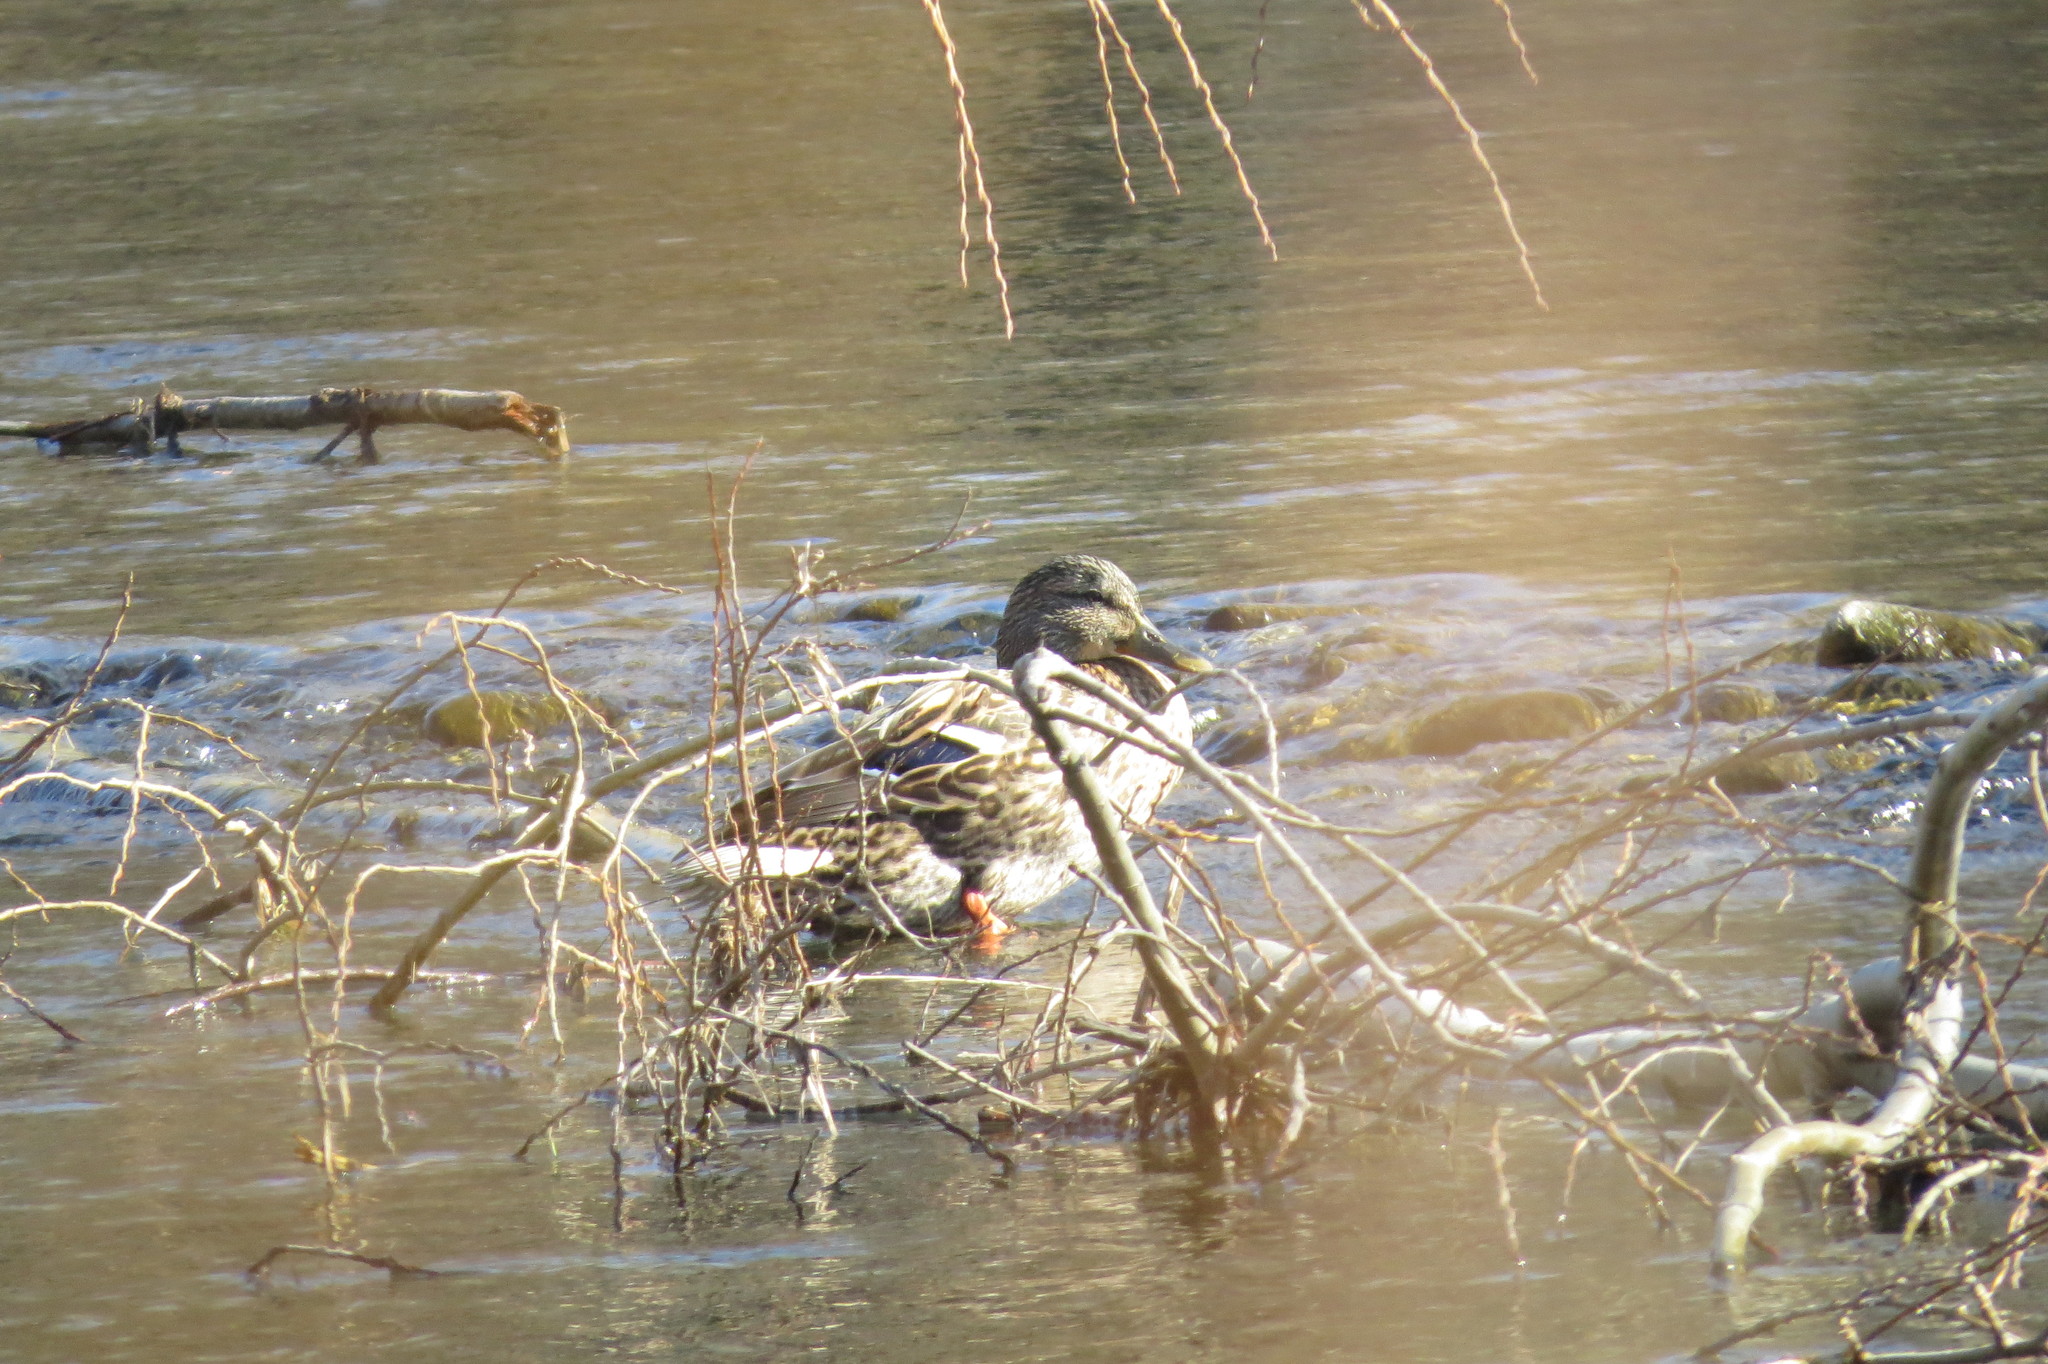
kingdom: Animalia
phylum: Chordata
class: Aves
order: Anseriformes
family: Anatidae
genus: Anas
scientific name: Anas platyrhynchos
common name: Mallard
